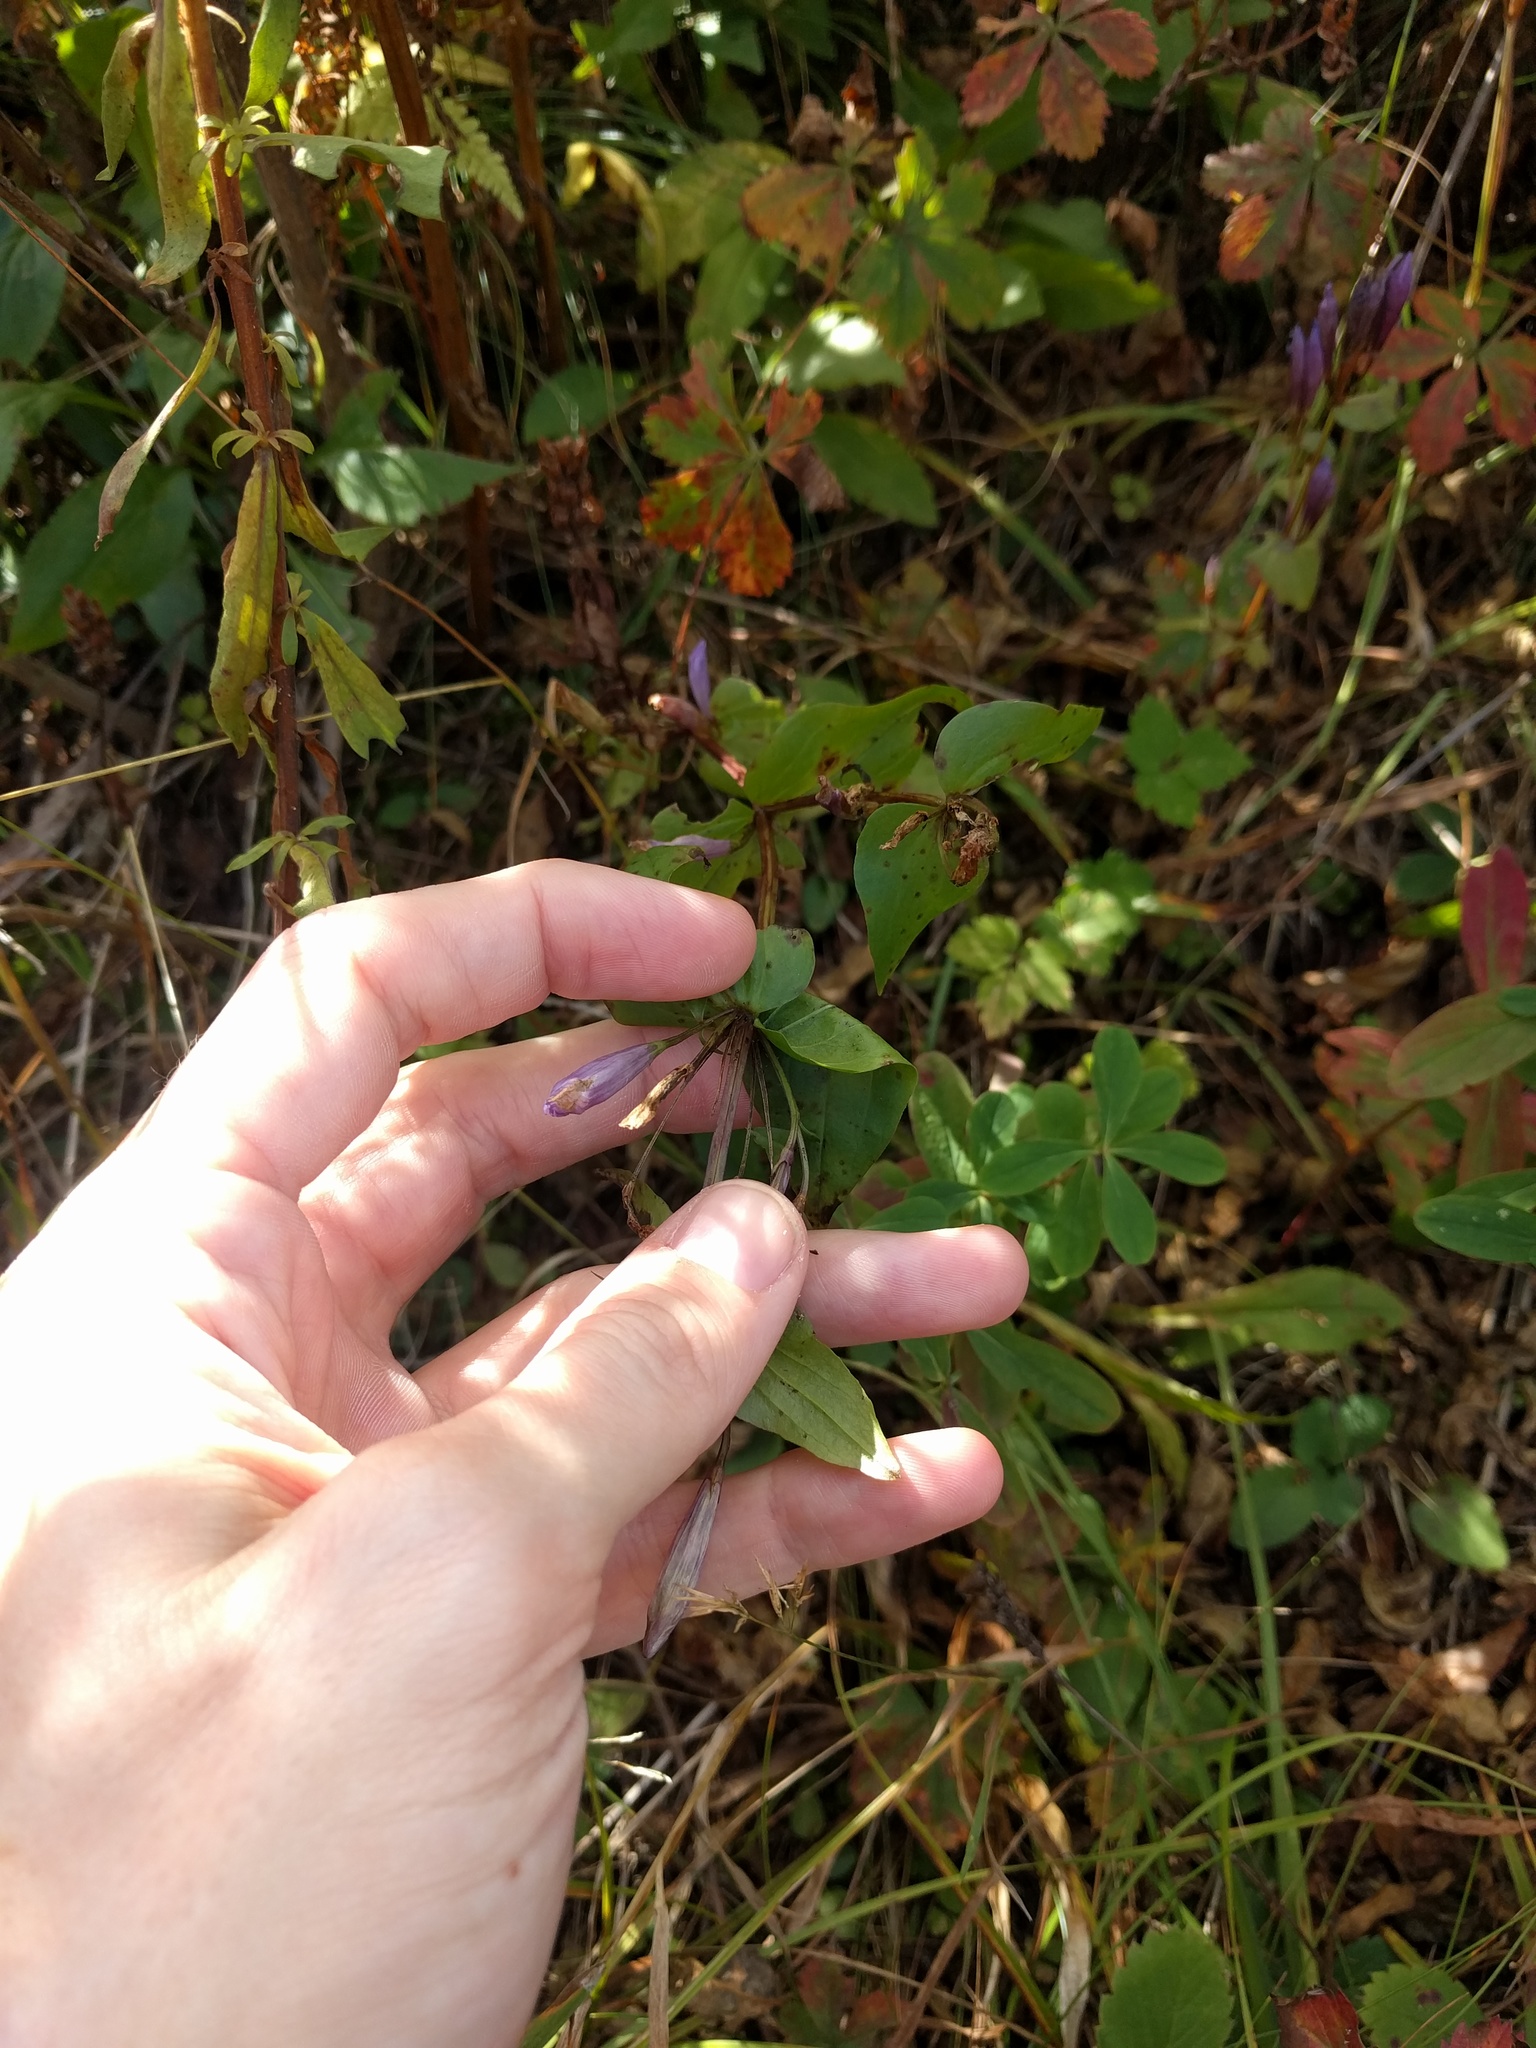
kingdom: Plantae
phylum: Tracheophyta
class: Magnoliopsida
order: Gentianales
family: Gentianaceae
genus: Gentianella
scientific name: Gentianella quinquefolia
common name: Agueweed
